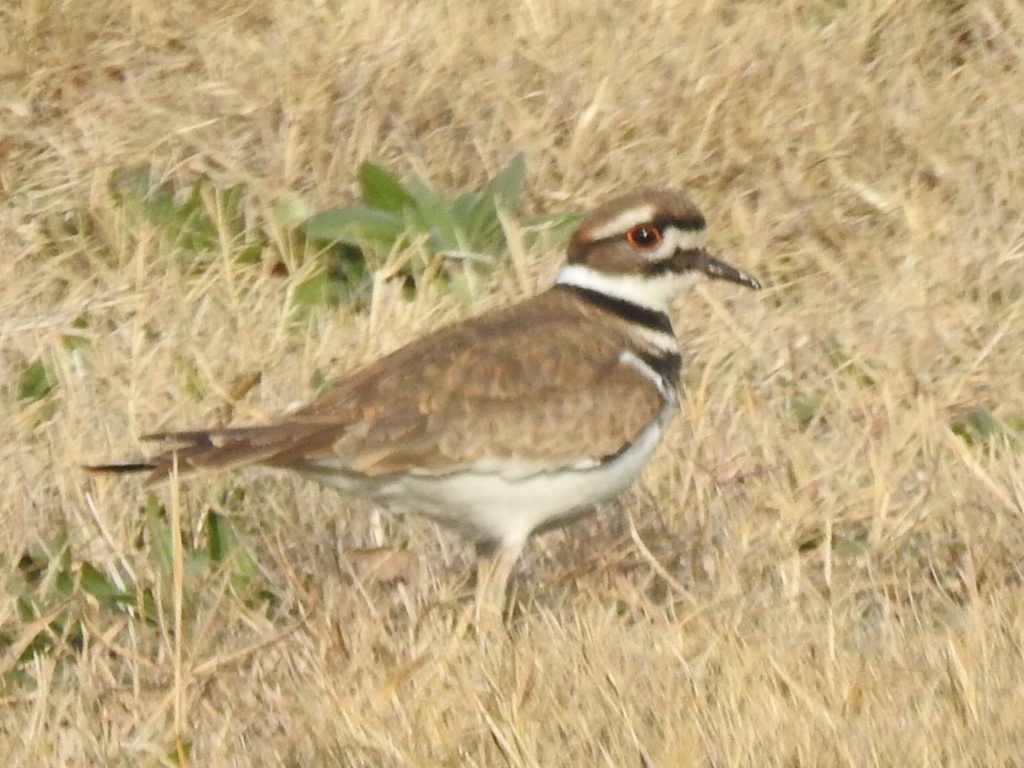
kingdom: Animalia
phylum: Chordata
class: Aves
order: Charadriiformes
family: Charadriidae
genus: Charadrius
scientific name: Charadrius vociferus
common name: Killdeer
